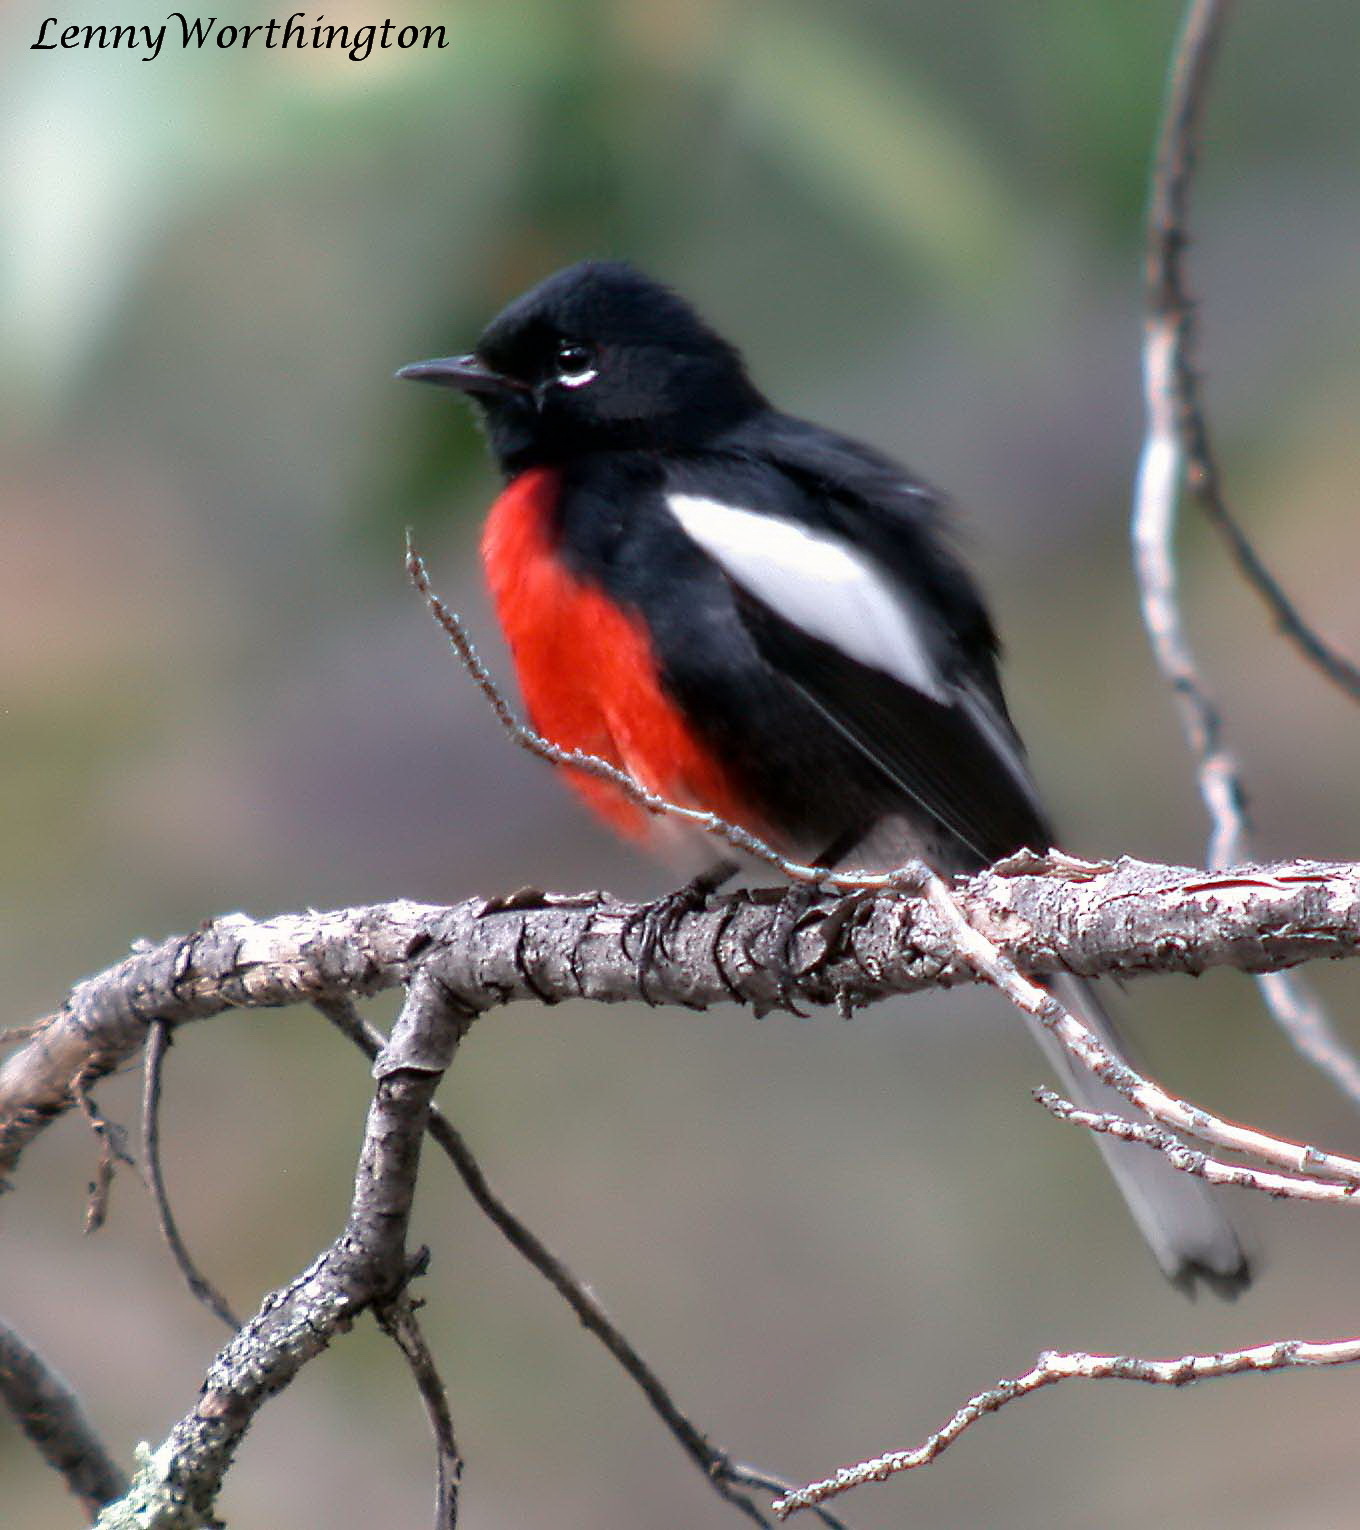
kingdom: Animalia
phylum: Chordata
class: Aves
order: Passeriformes
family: Parulidae
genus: Myioborus
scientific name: Myioborus pictus
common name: Painted whitestart
